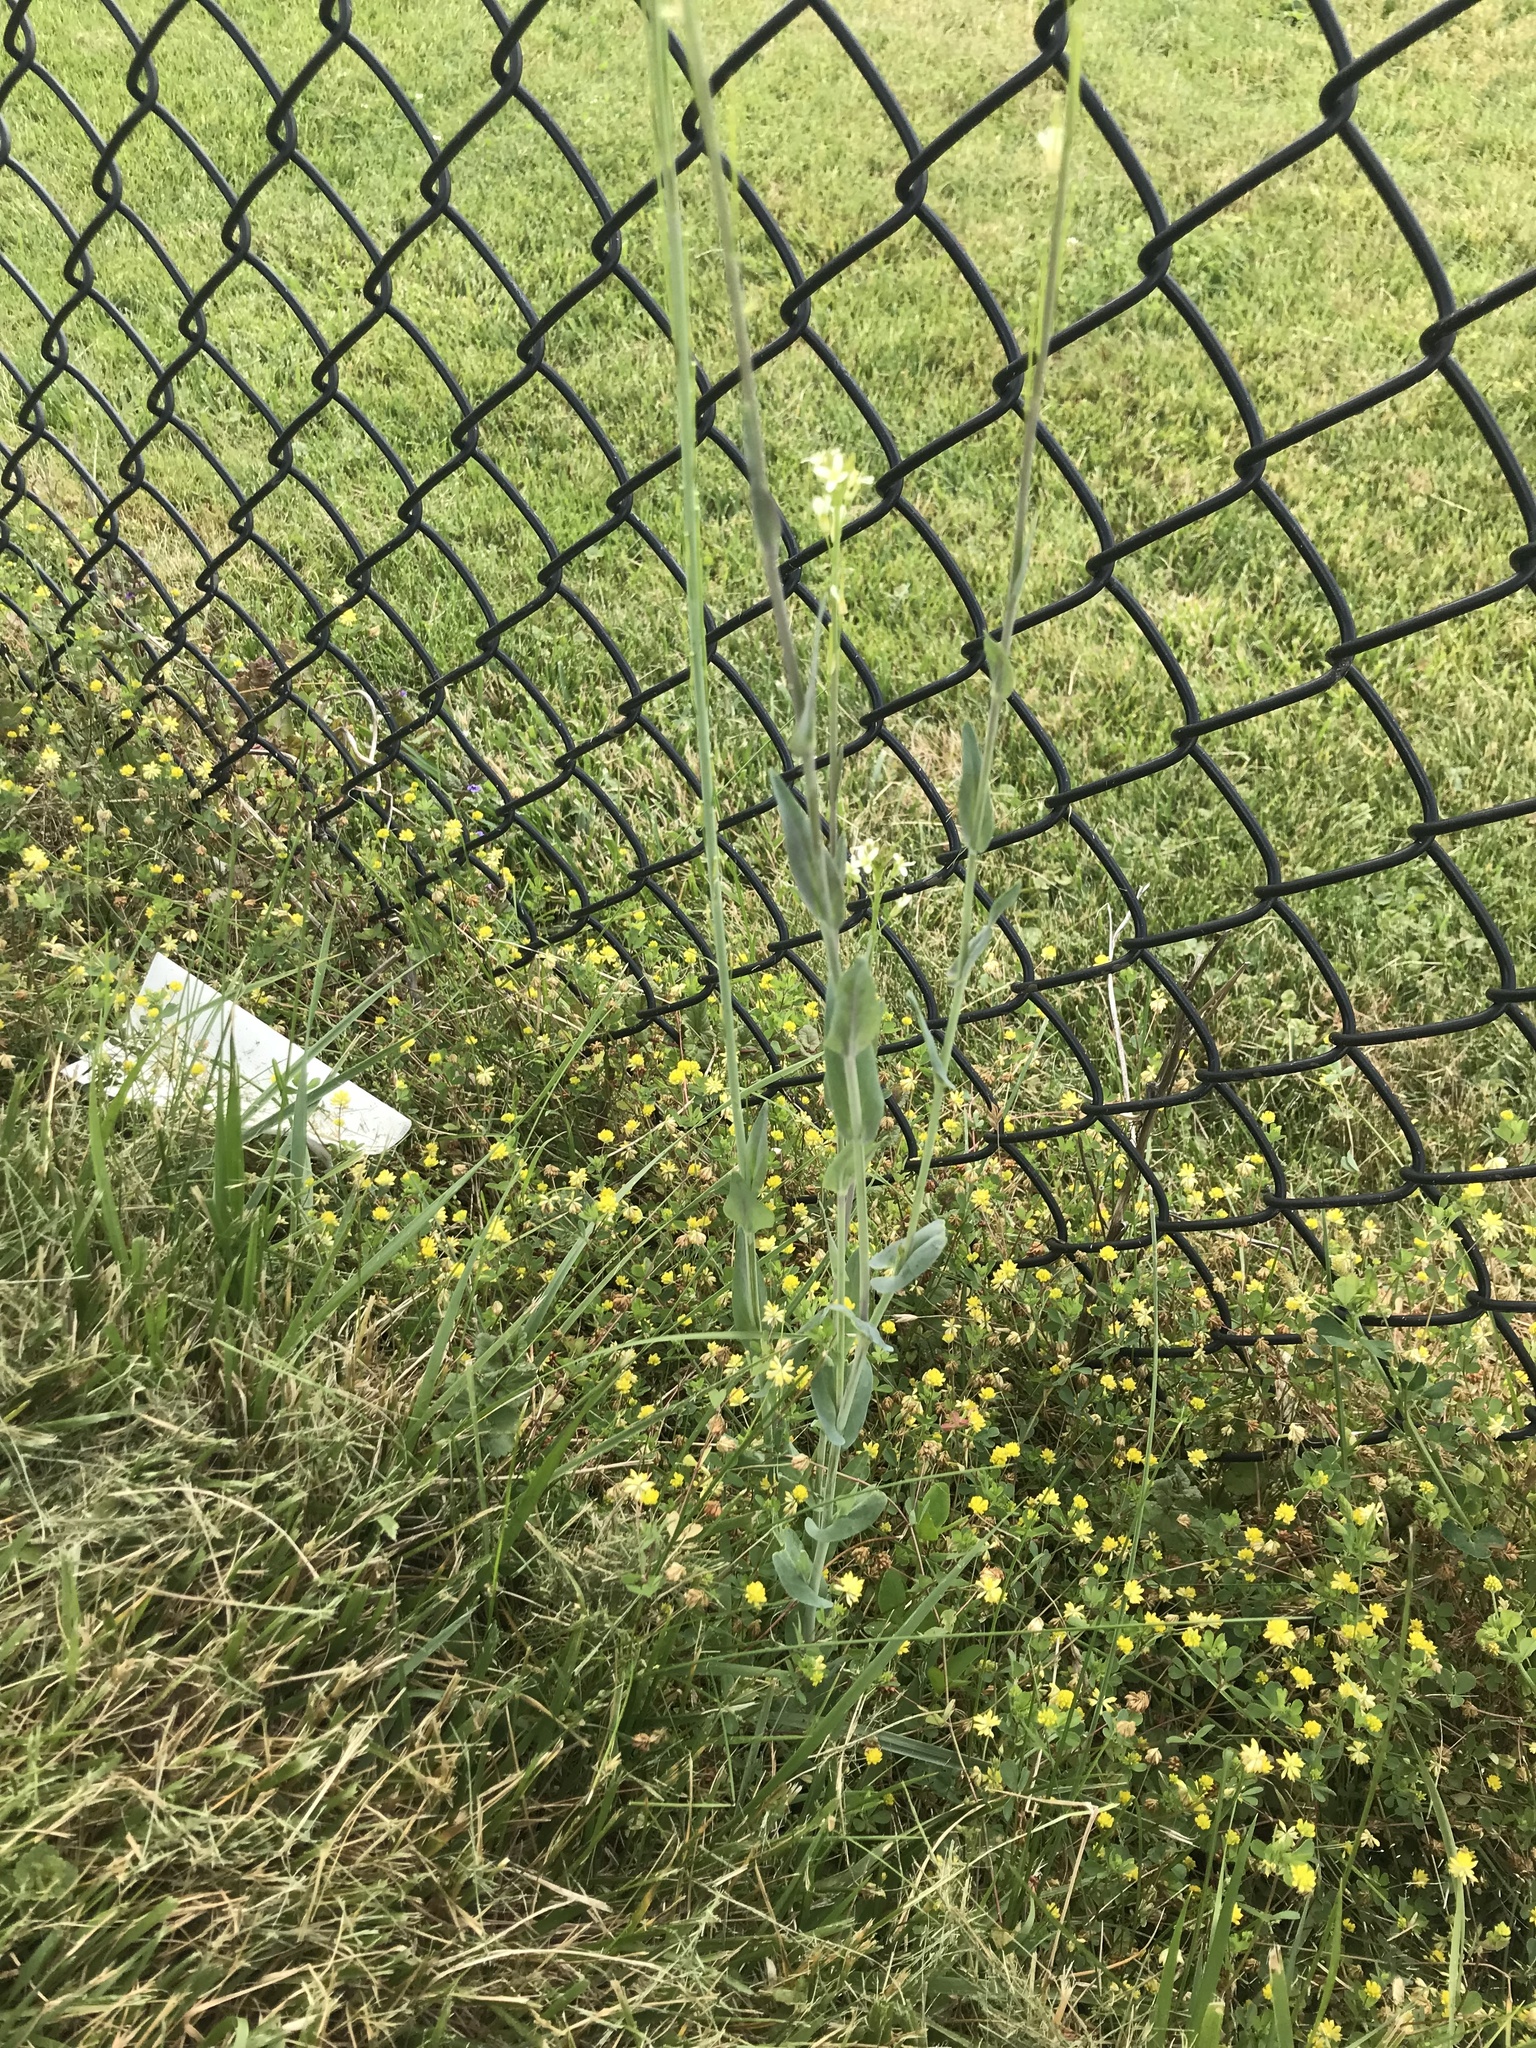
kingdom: Plantae
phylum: Tracheophyta
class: Magnoliopsida
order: Brassicales
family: Brassicaceae
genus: Turritis
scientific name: Turritis glabra
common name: Tower rockcress
